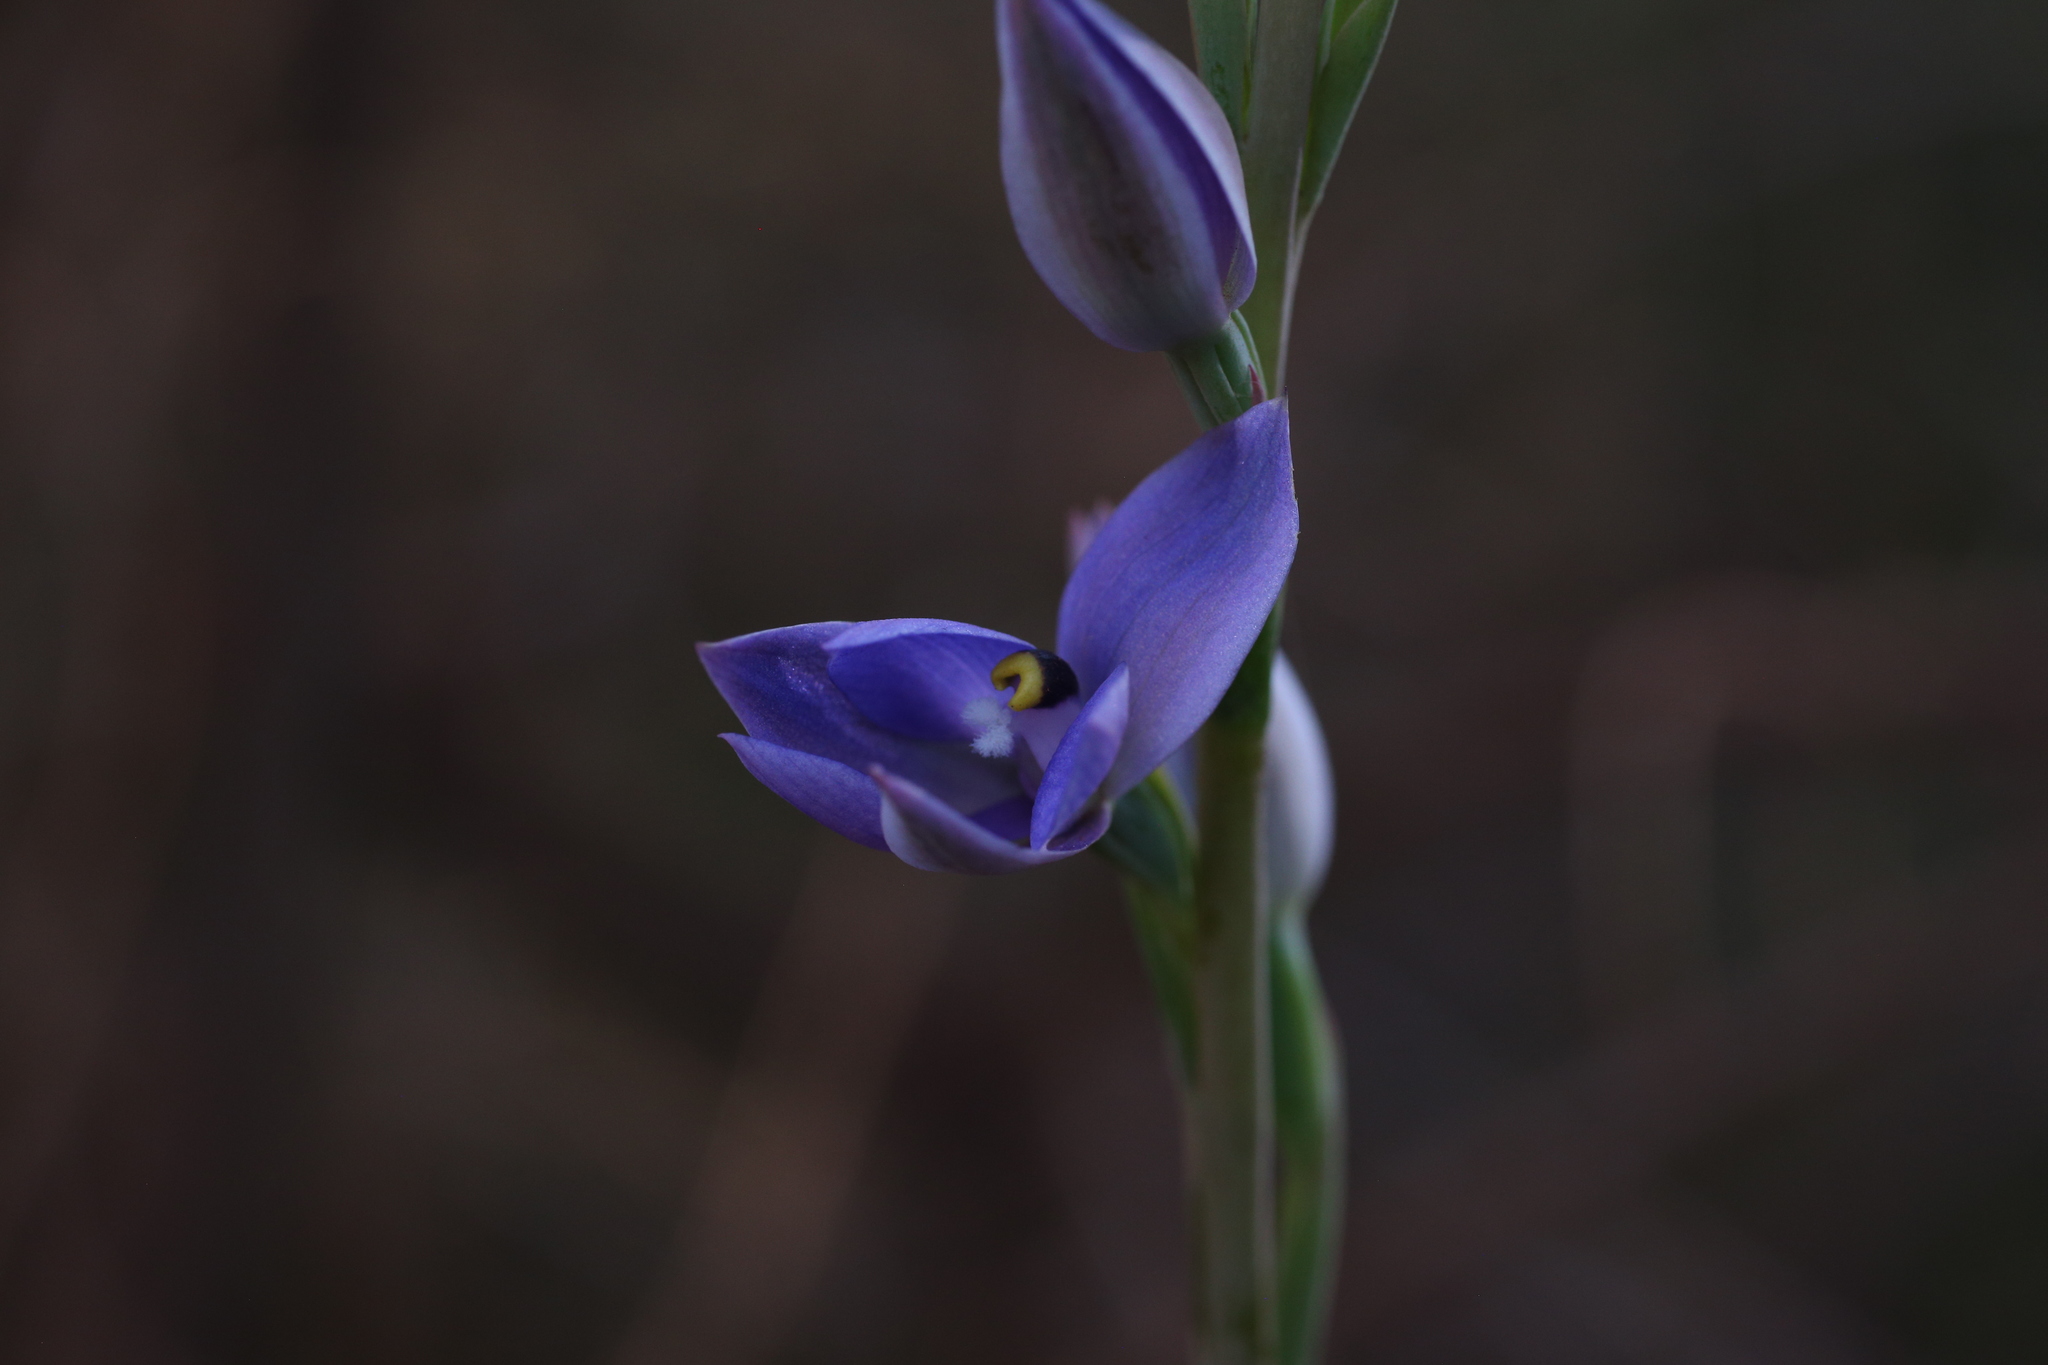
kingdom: Plantae
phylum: Tracheophyta
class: Liliopsida
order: Asparagales
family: Orchidaceae
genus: Thelymitra
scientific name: Thelymitra macrophylla
